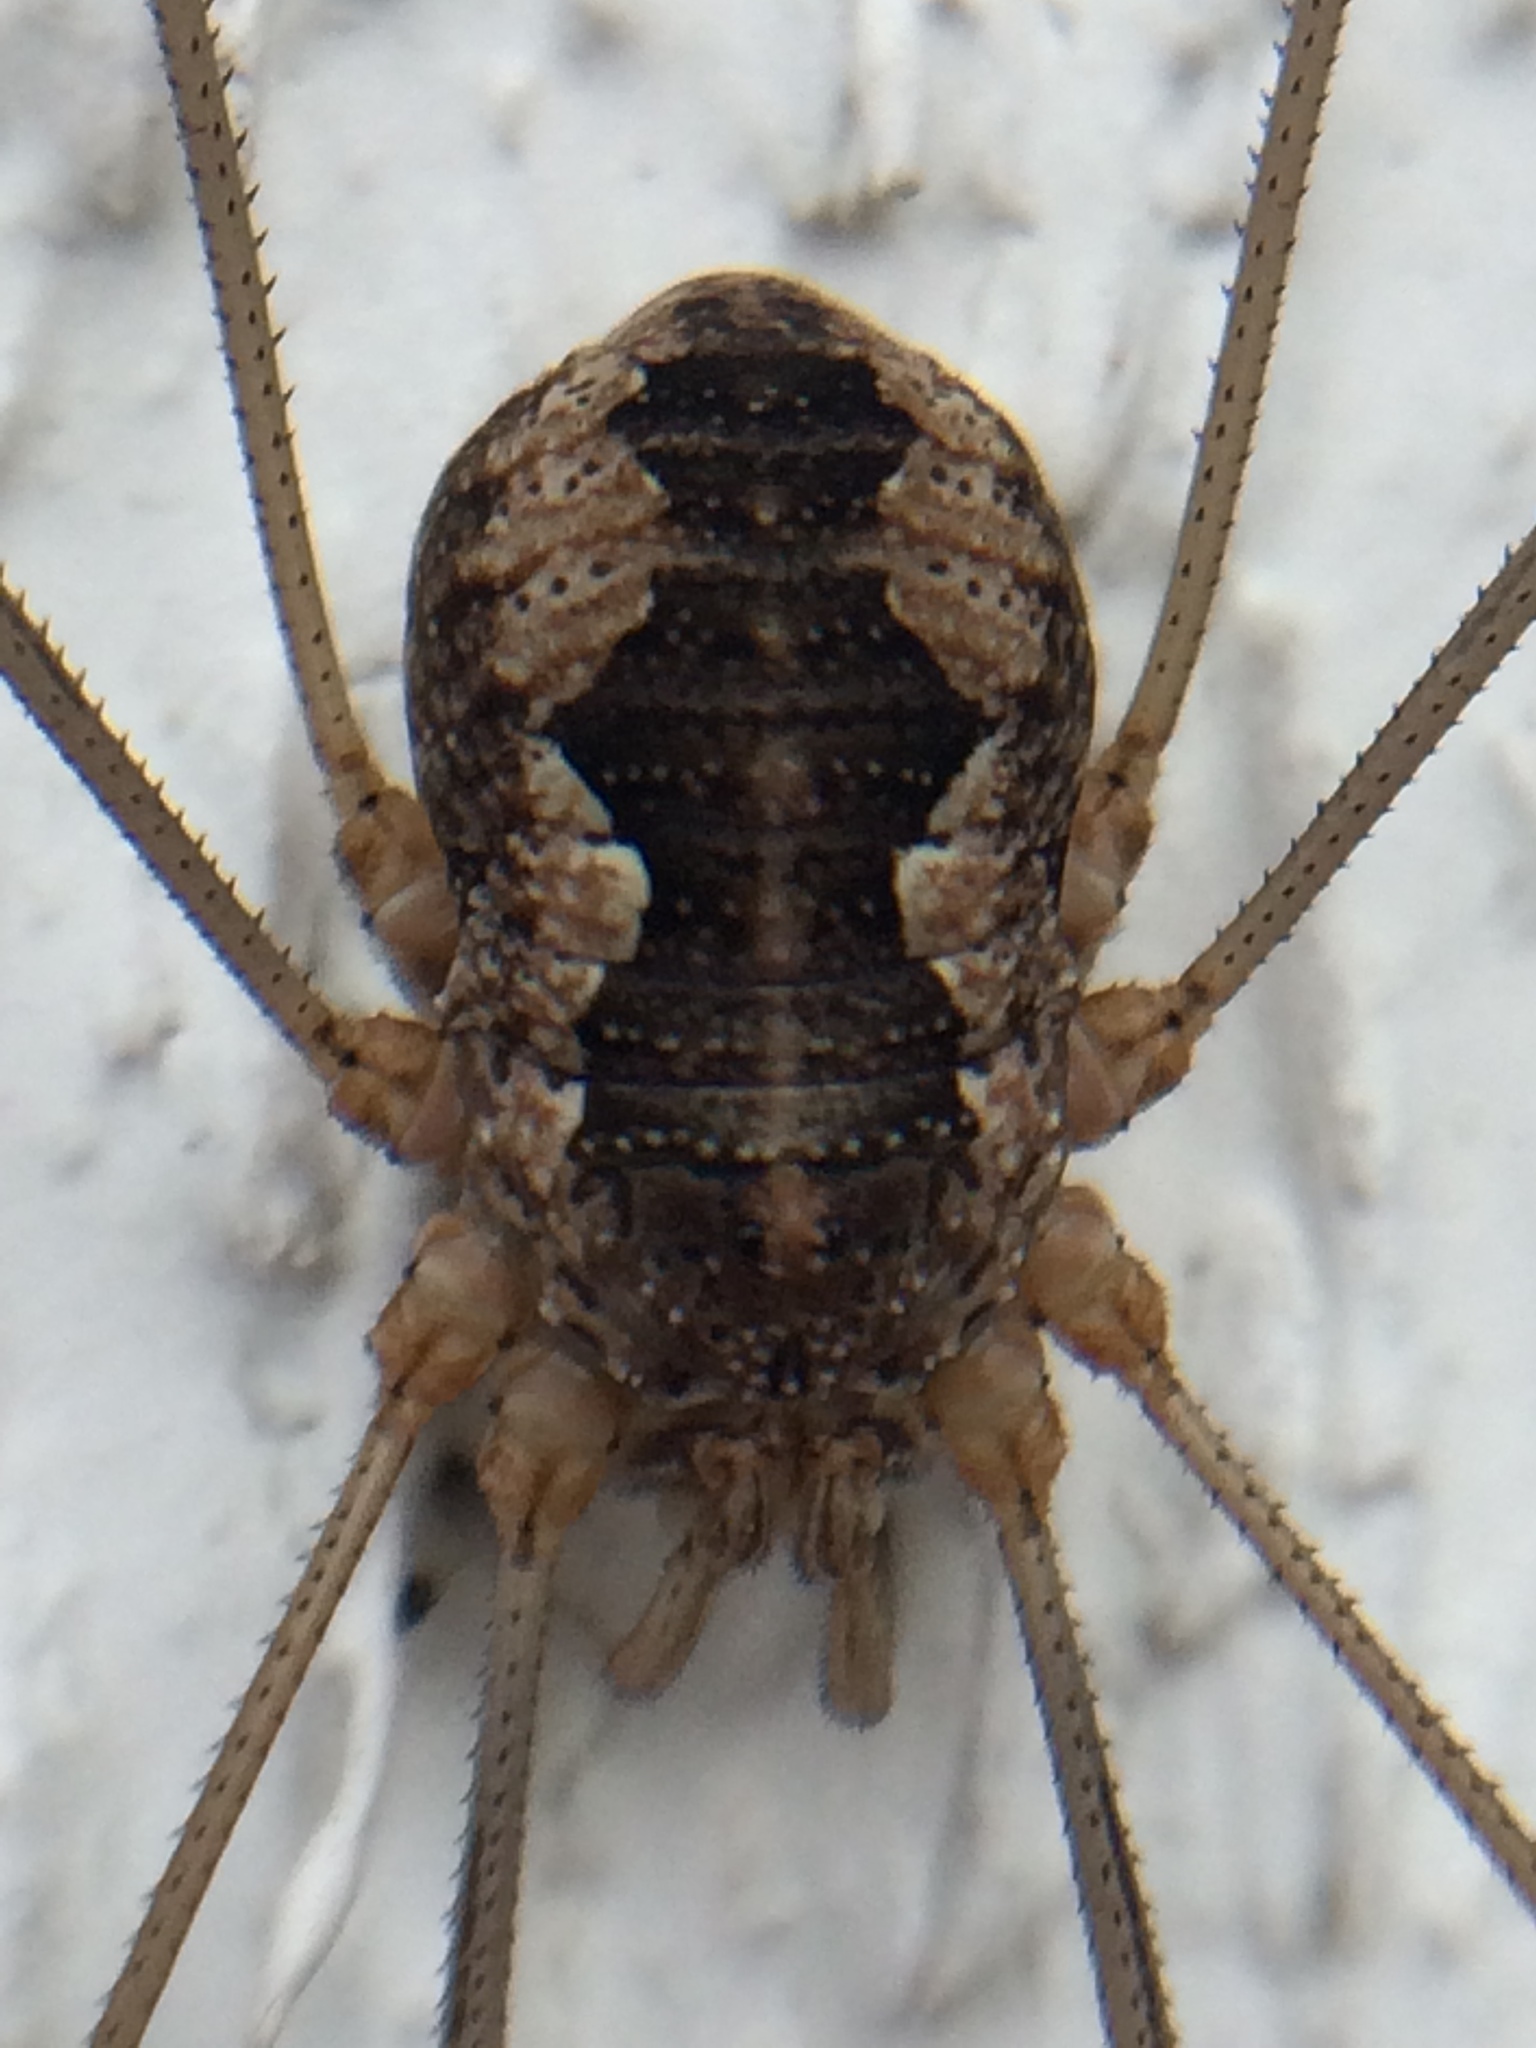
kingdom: Animalia
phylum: Arthropoda
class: Arachnida
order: Opiliones
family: Phalangiidae
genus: Phalangium
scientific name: Phalangium opilio
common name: Daddy longleg
